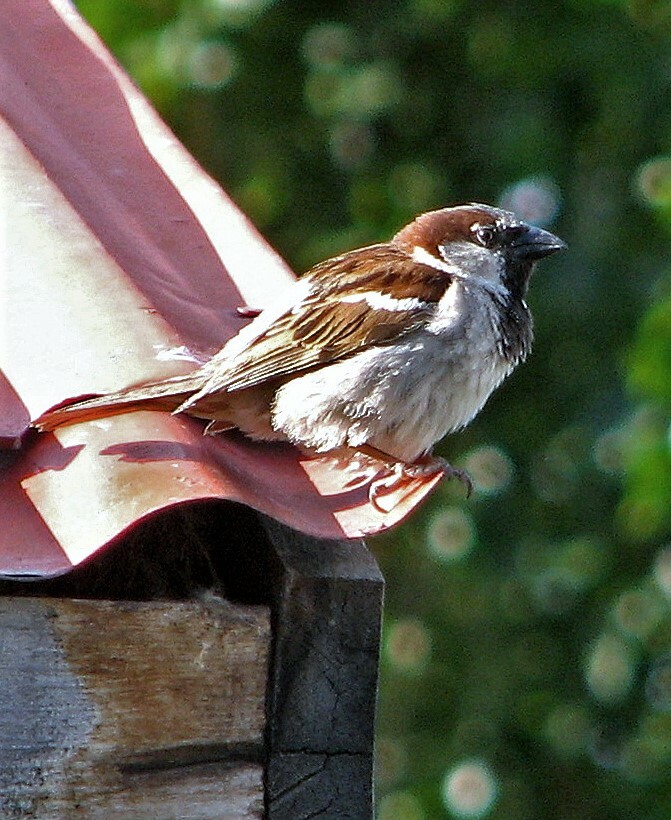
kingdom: Animalia
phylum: Chordata
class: Aves
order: Passeriformes
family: Passeridae
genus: Passer
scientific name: Passer domesticus
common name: House sparrow
